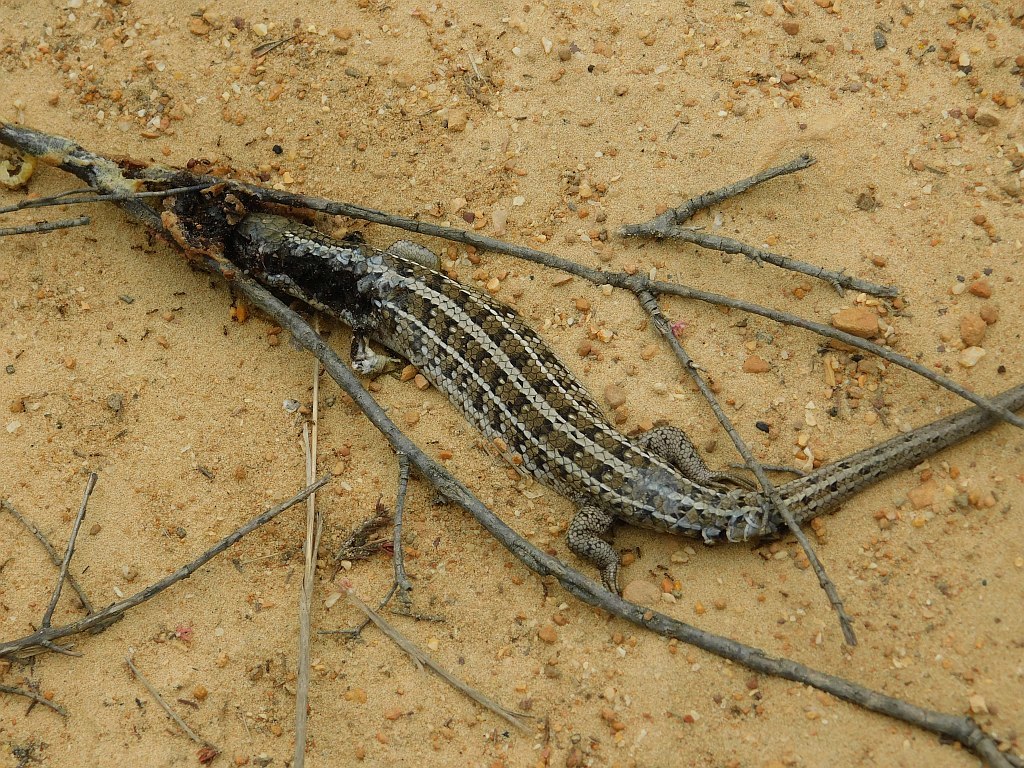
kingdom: Animalia
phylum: Chordata
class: Squamata
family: Scincidae
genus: Trachylepis
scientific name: Trachylepis capensis
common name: Cape skink
